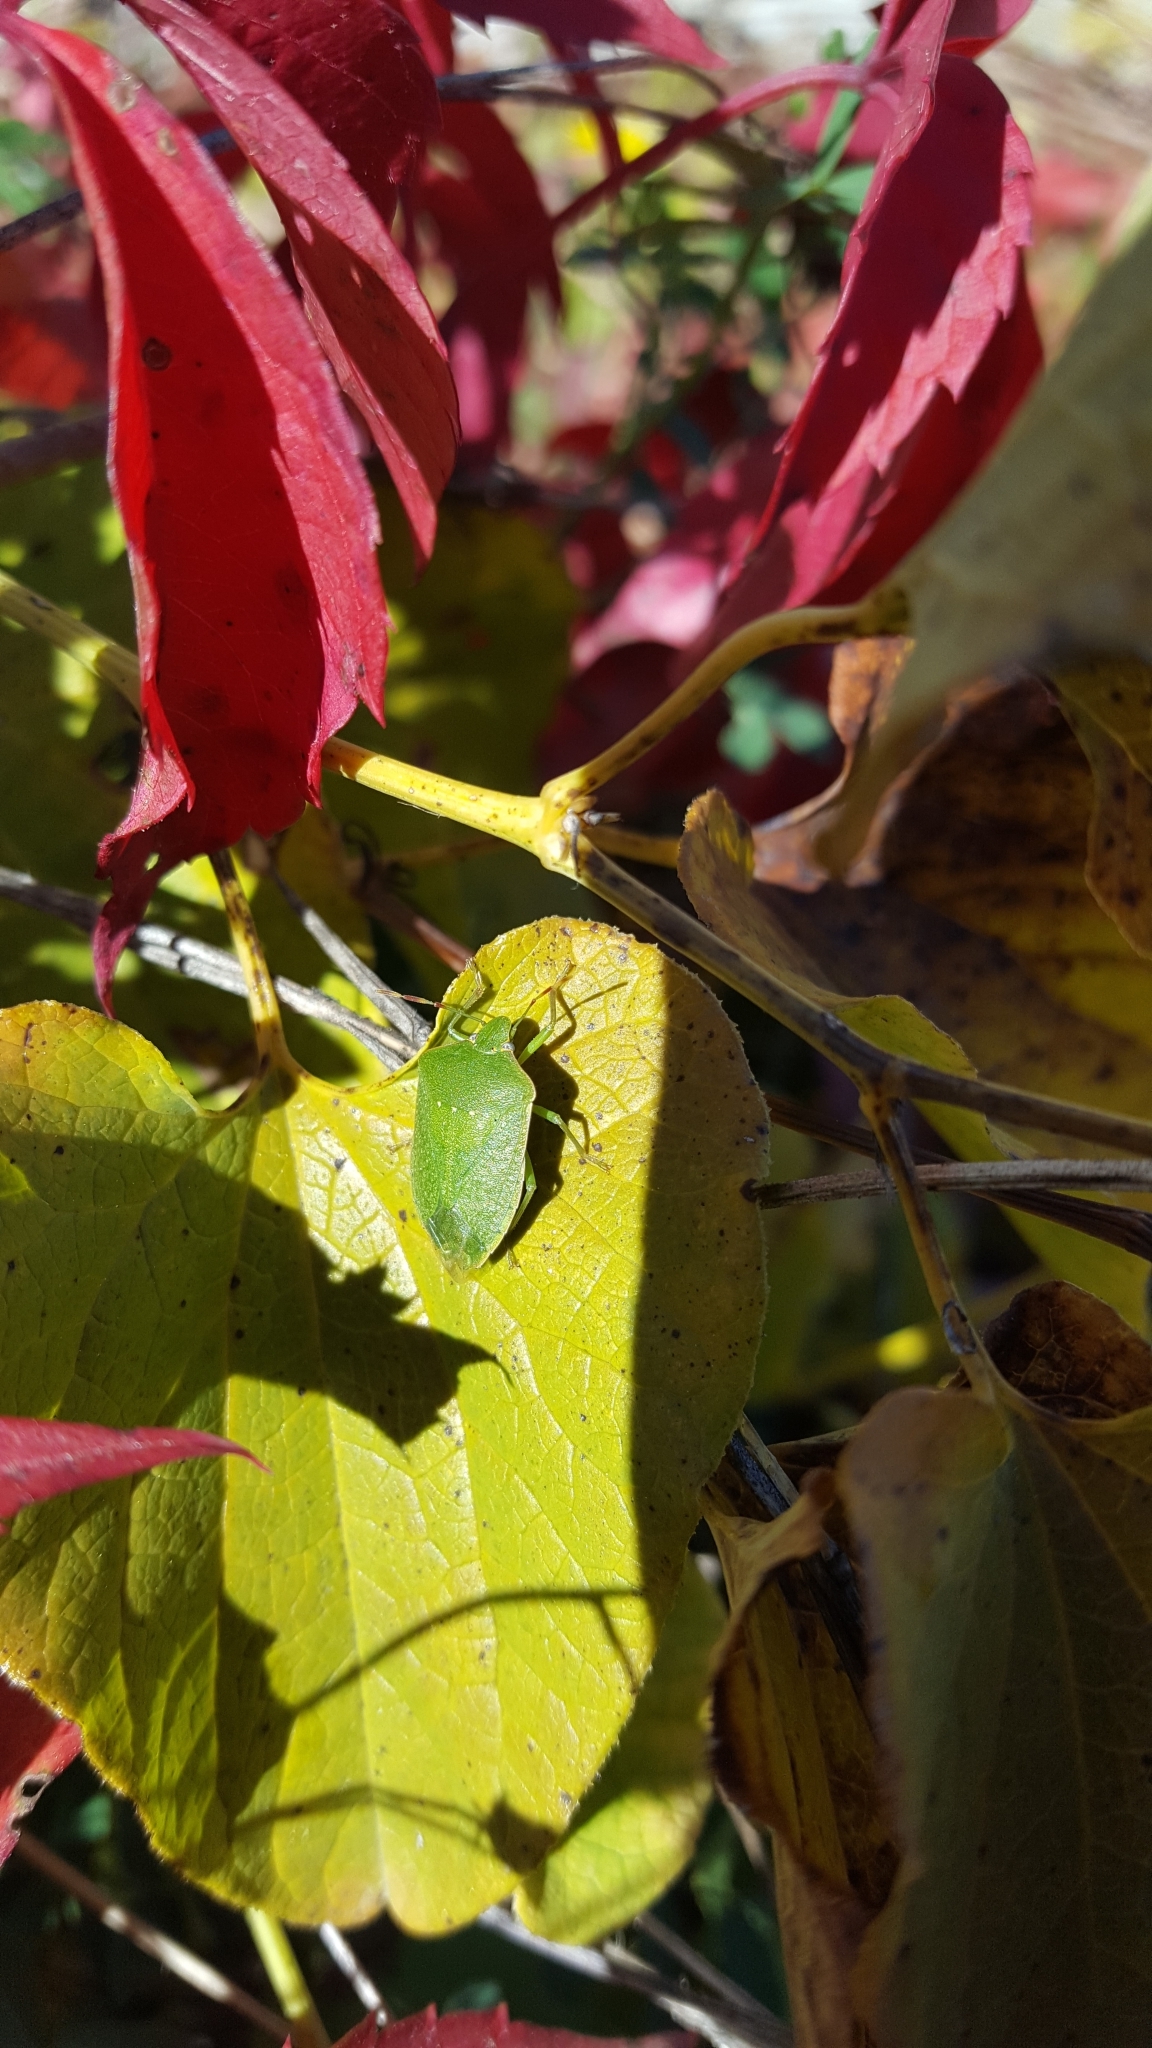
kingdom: Animalia
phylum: Arthropoda
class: Insecta
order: Hemiptera
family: Pentatomidae
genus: Nezara
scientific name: Nezara viridula
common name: Southern green stink bug
